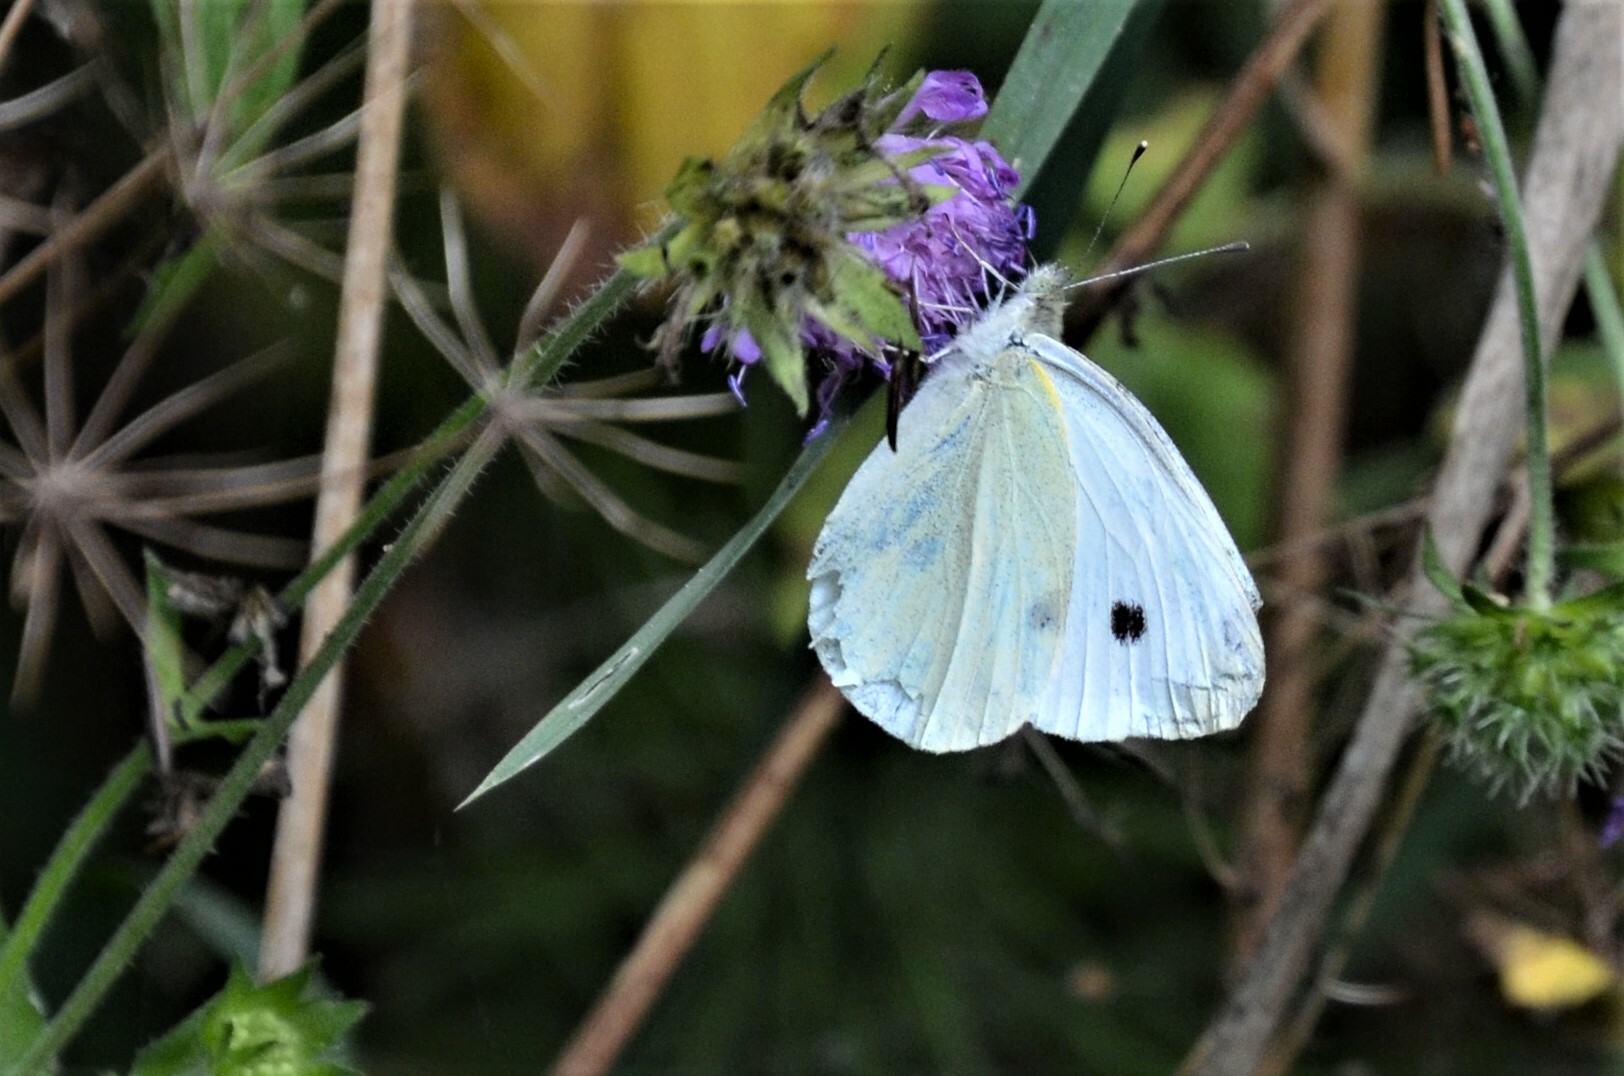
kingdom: Animalia
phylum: Arthropoda
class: Insecta
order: Lepidoptera
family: Pieridae
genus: Pieris
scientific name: Pieris rapae
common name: Small white
